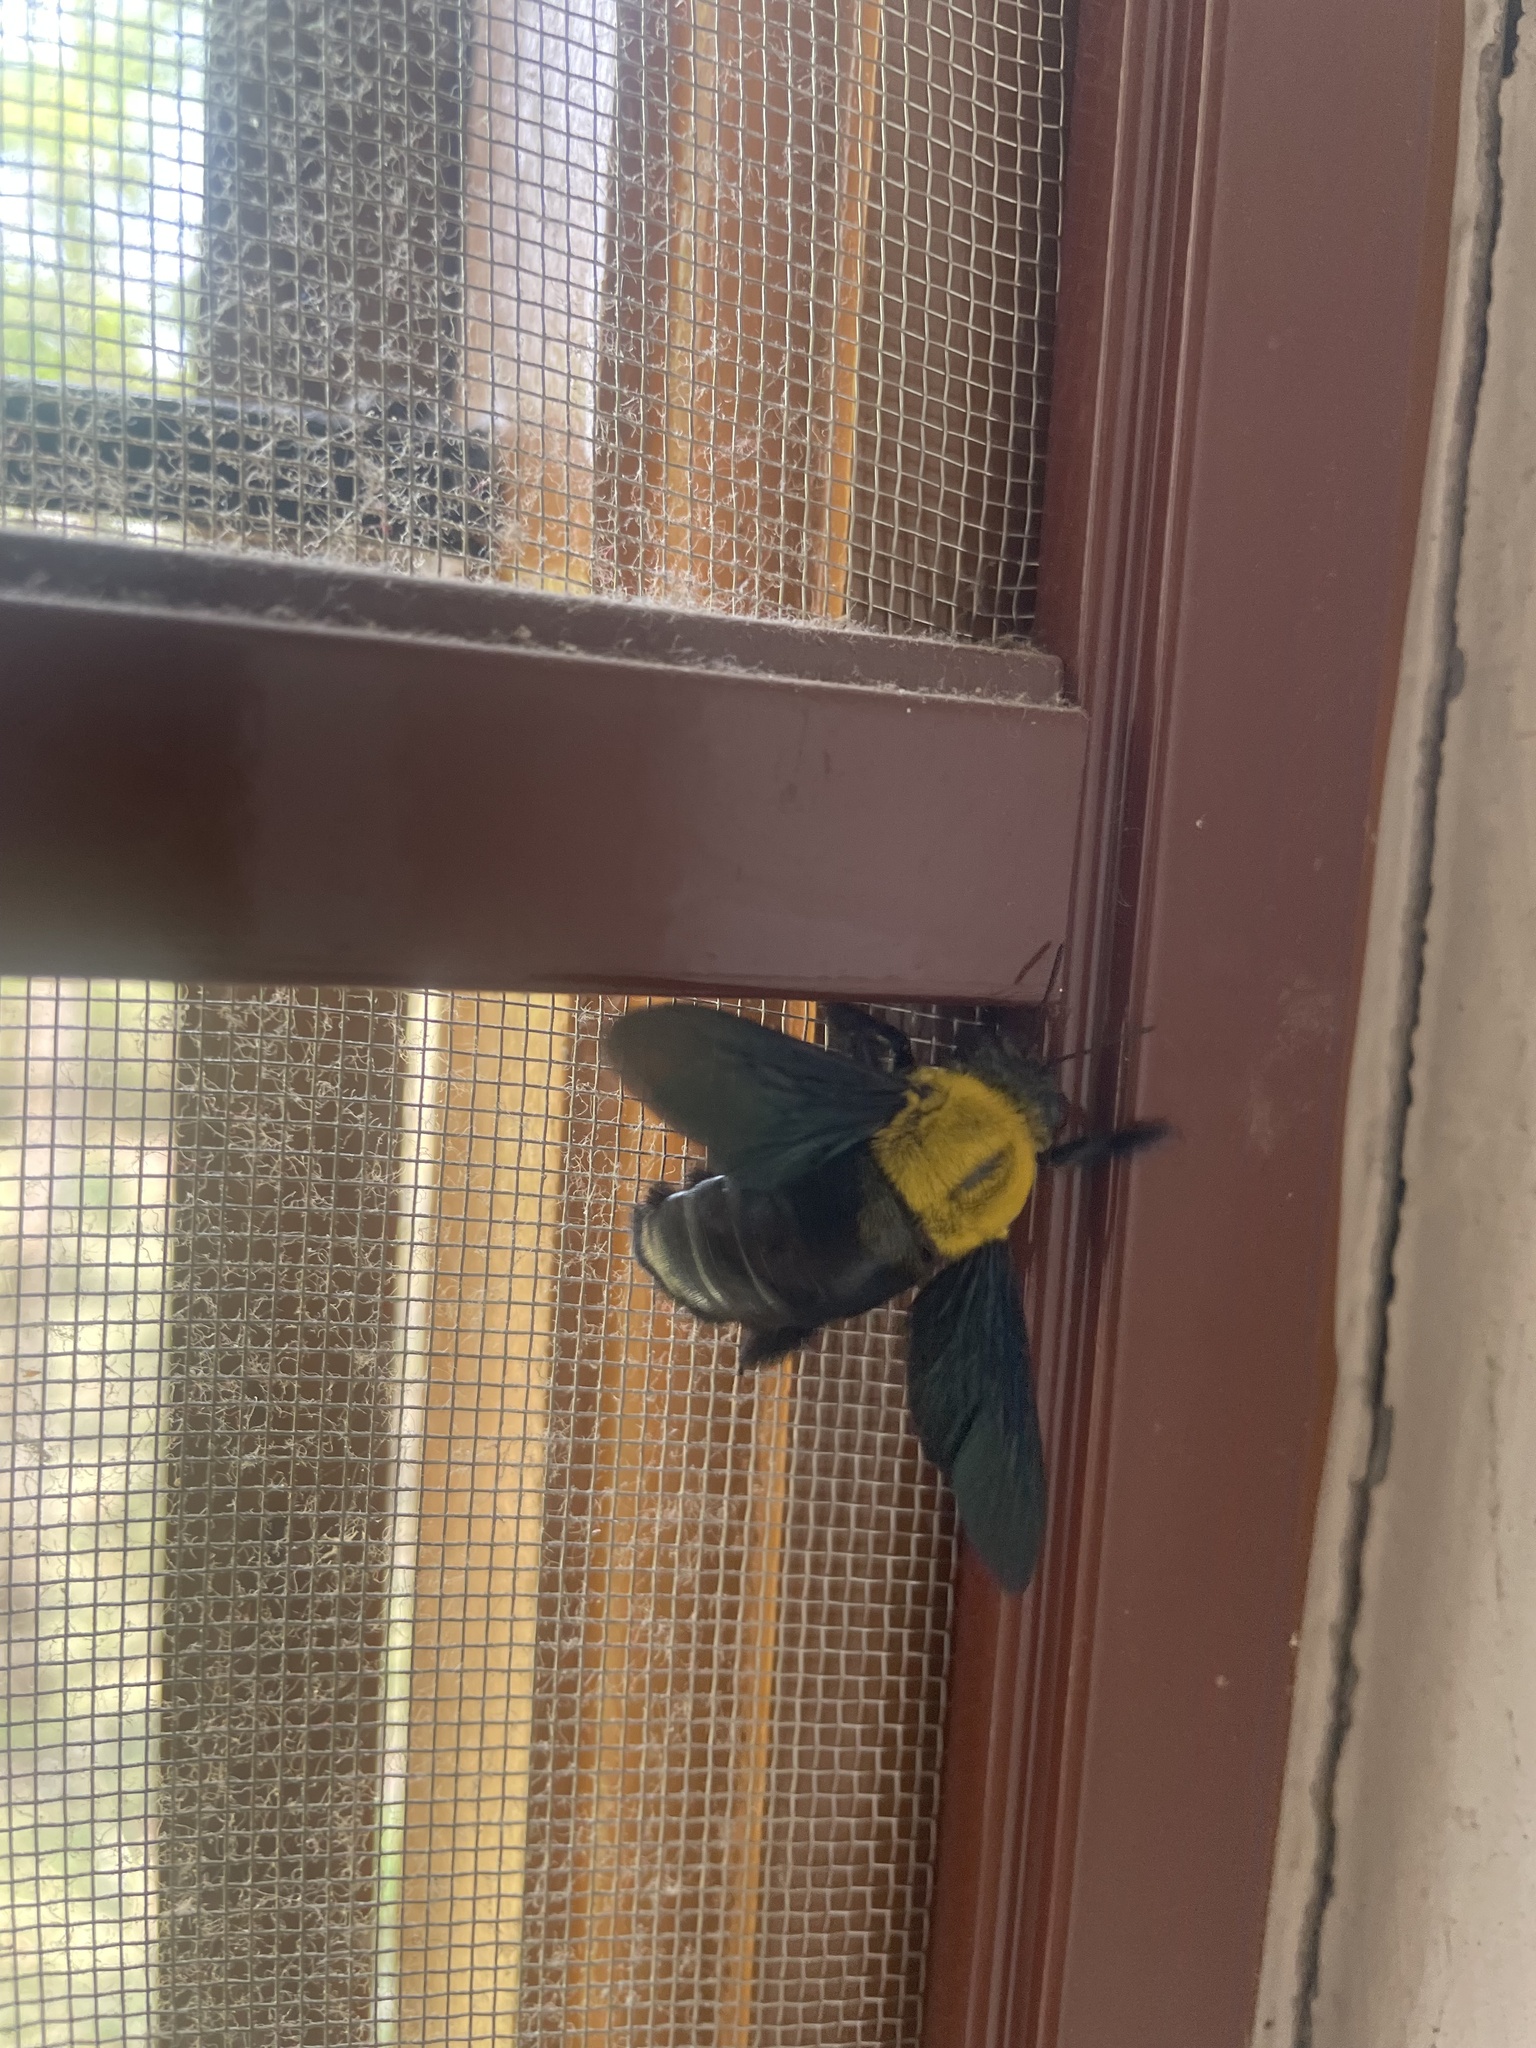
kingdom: Animalia
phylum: Arthropoda
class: Insecta
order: Hymenoptera
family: Apidae
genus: Xylocopa
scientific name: Xylocopa ruficornis
